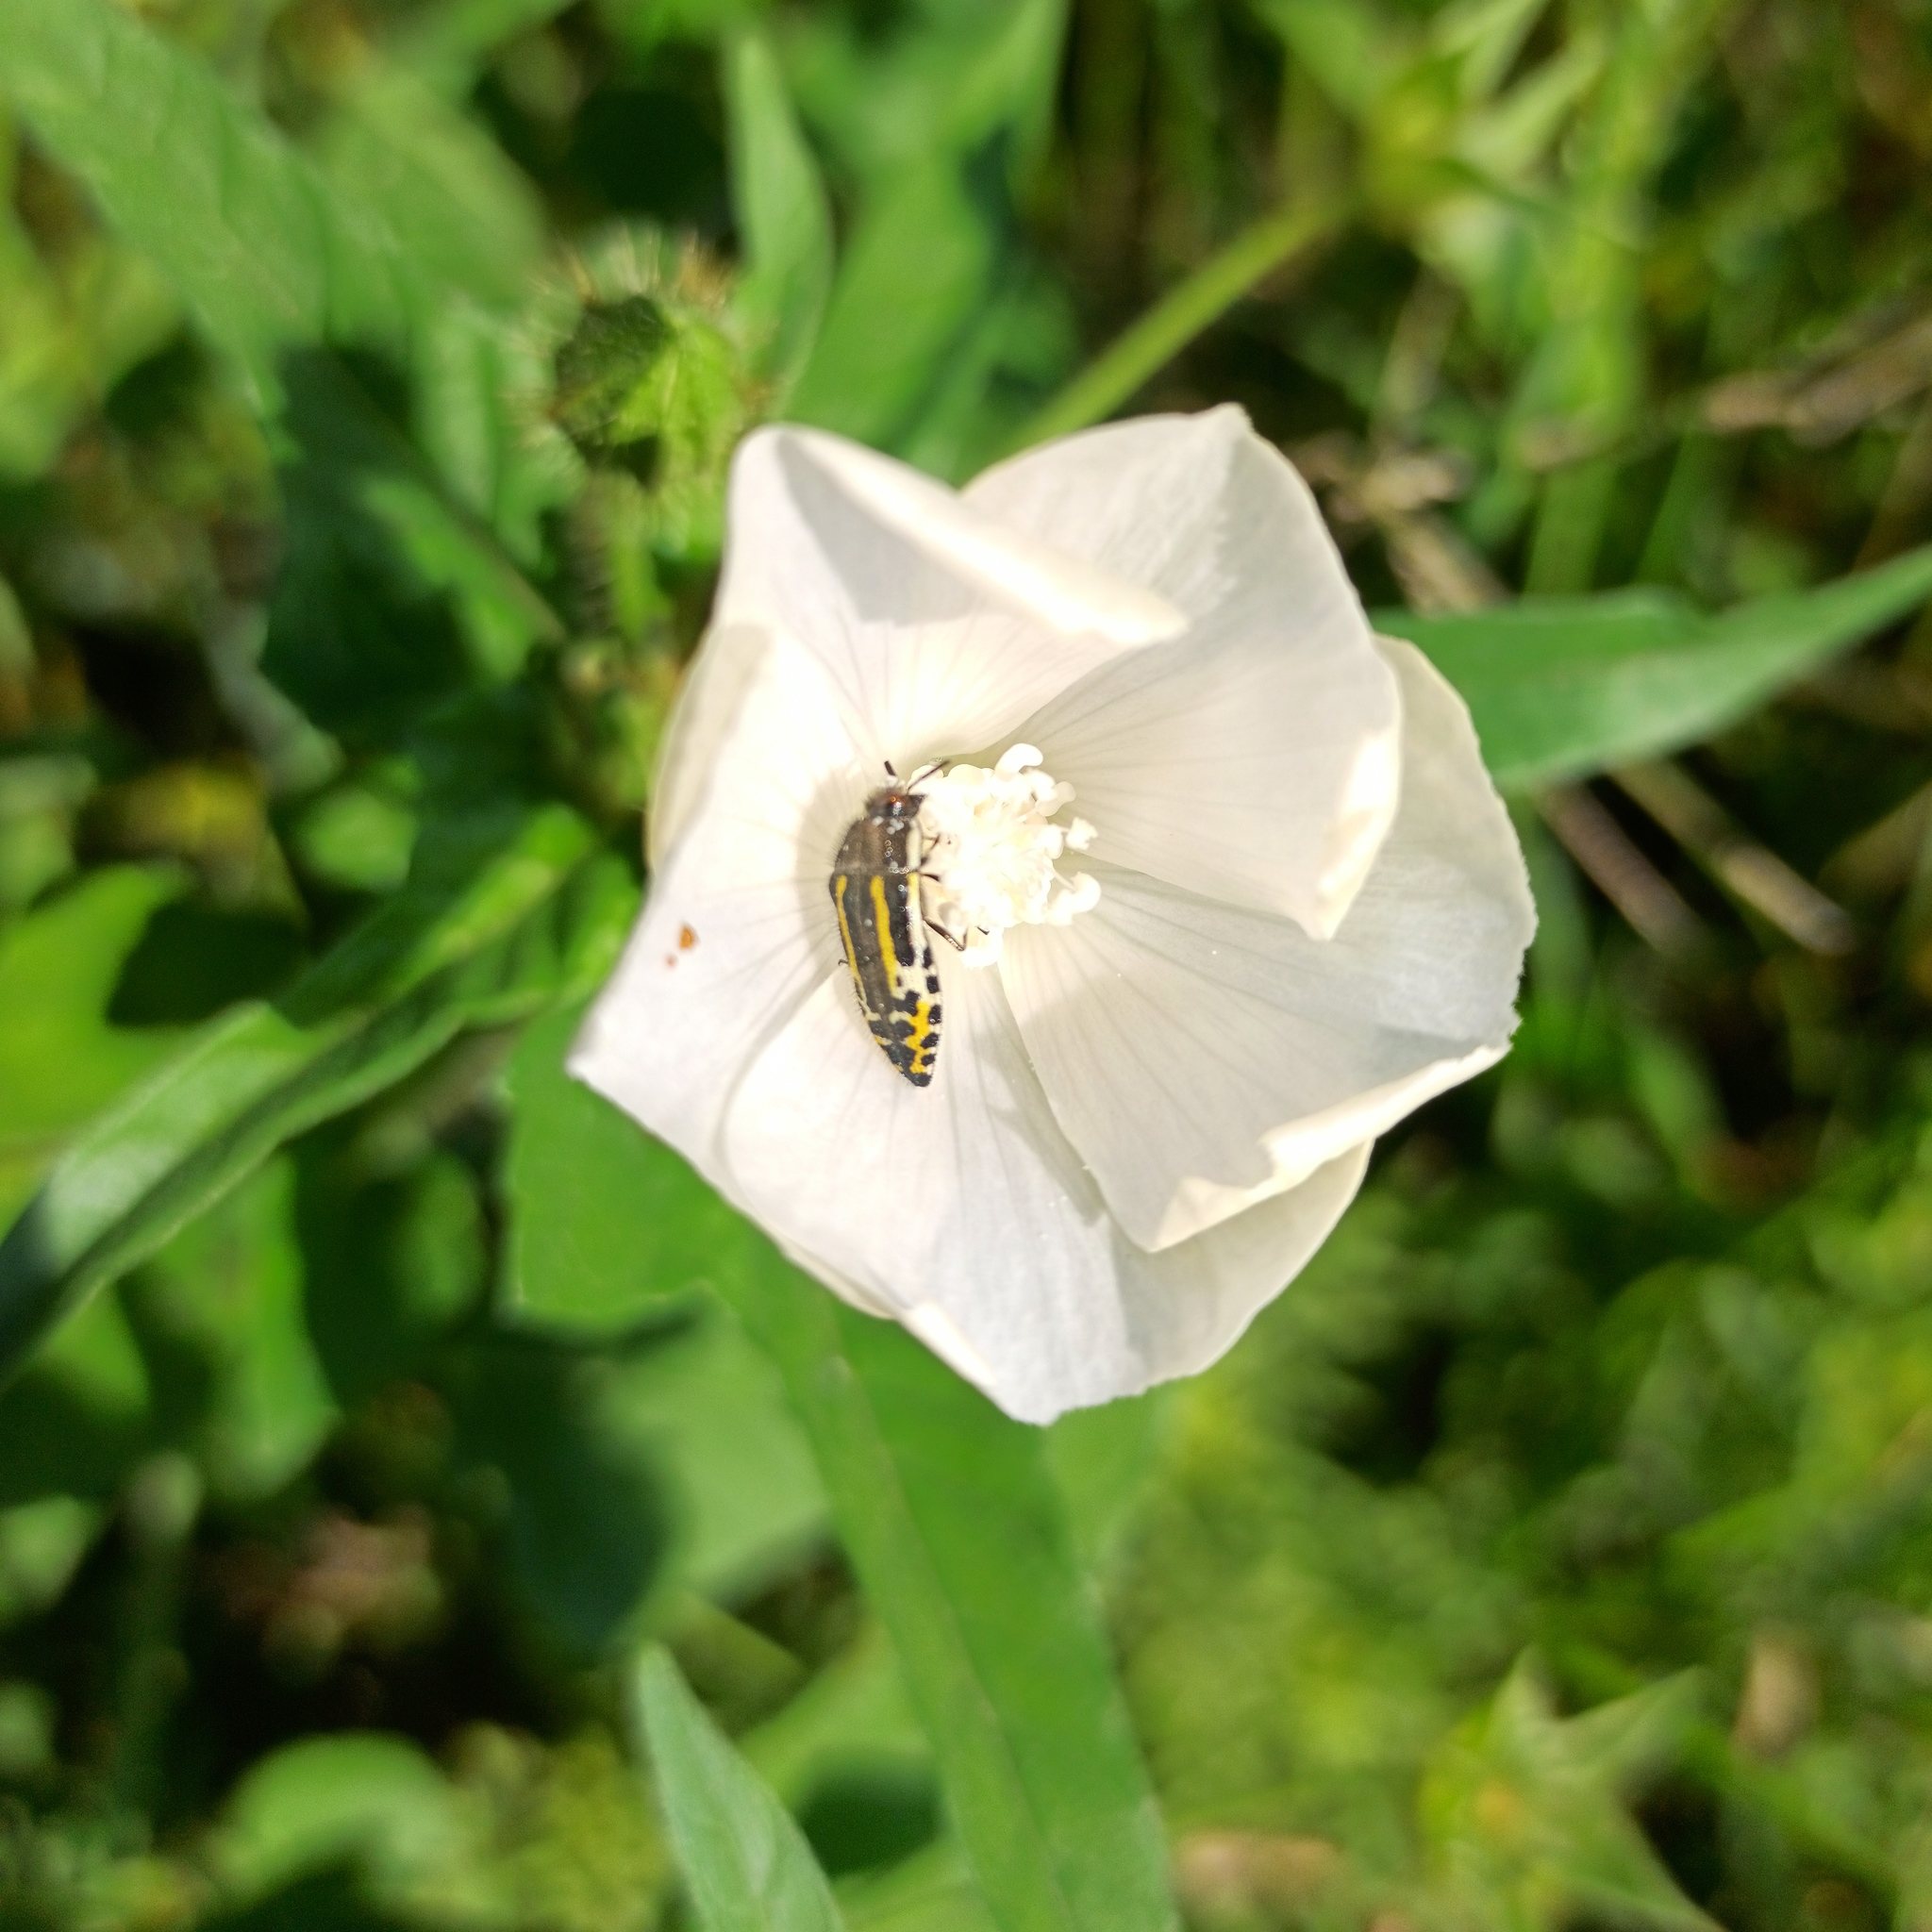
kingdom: Animalia
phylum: Arthropoda
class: Insecta
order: Coleoptera
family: Buprestidae
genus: Acmaeodera
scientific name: Acmaeodera scalaris
